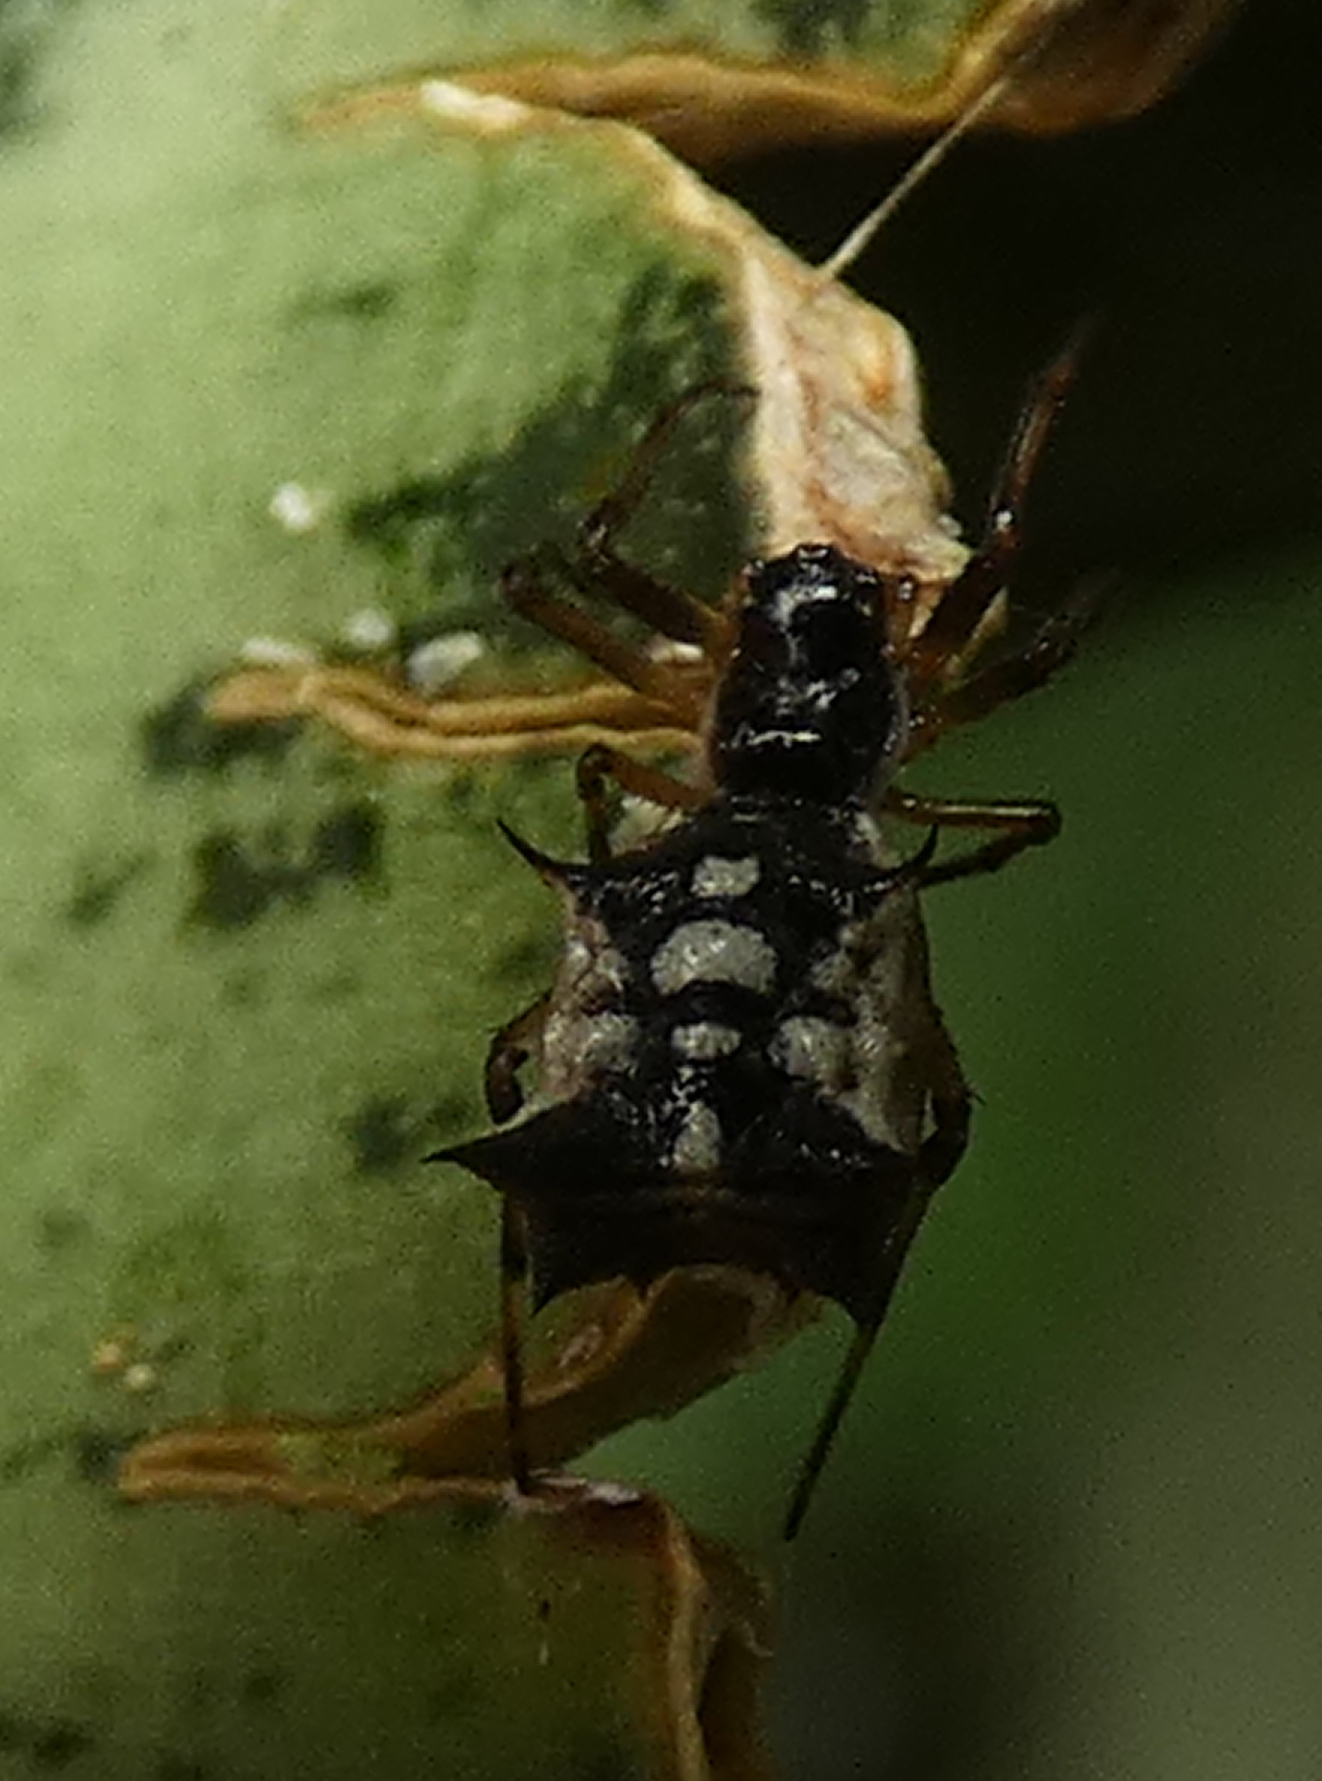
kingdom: Animalia
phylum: Arthropoda
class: Arachnida
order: Araneae
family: Araneidae
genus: Micrathena
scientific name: Micrathena picta
